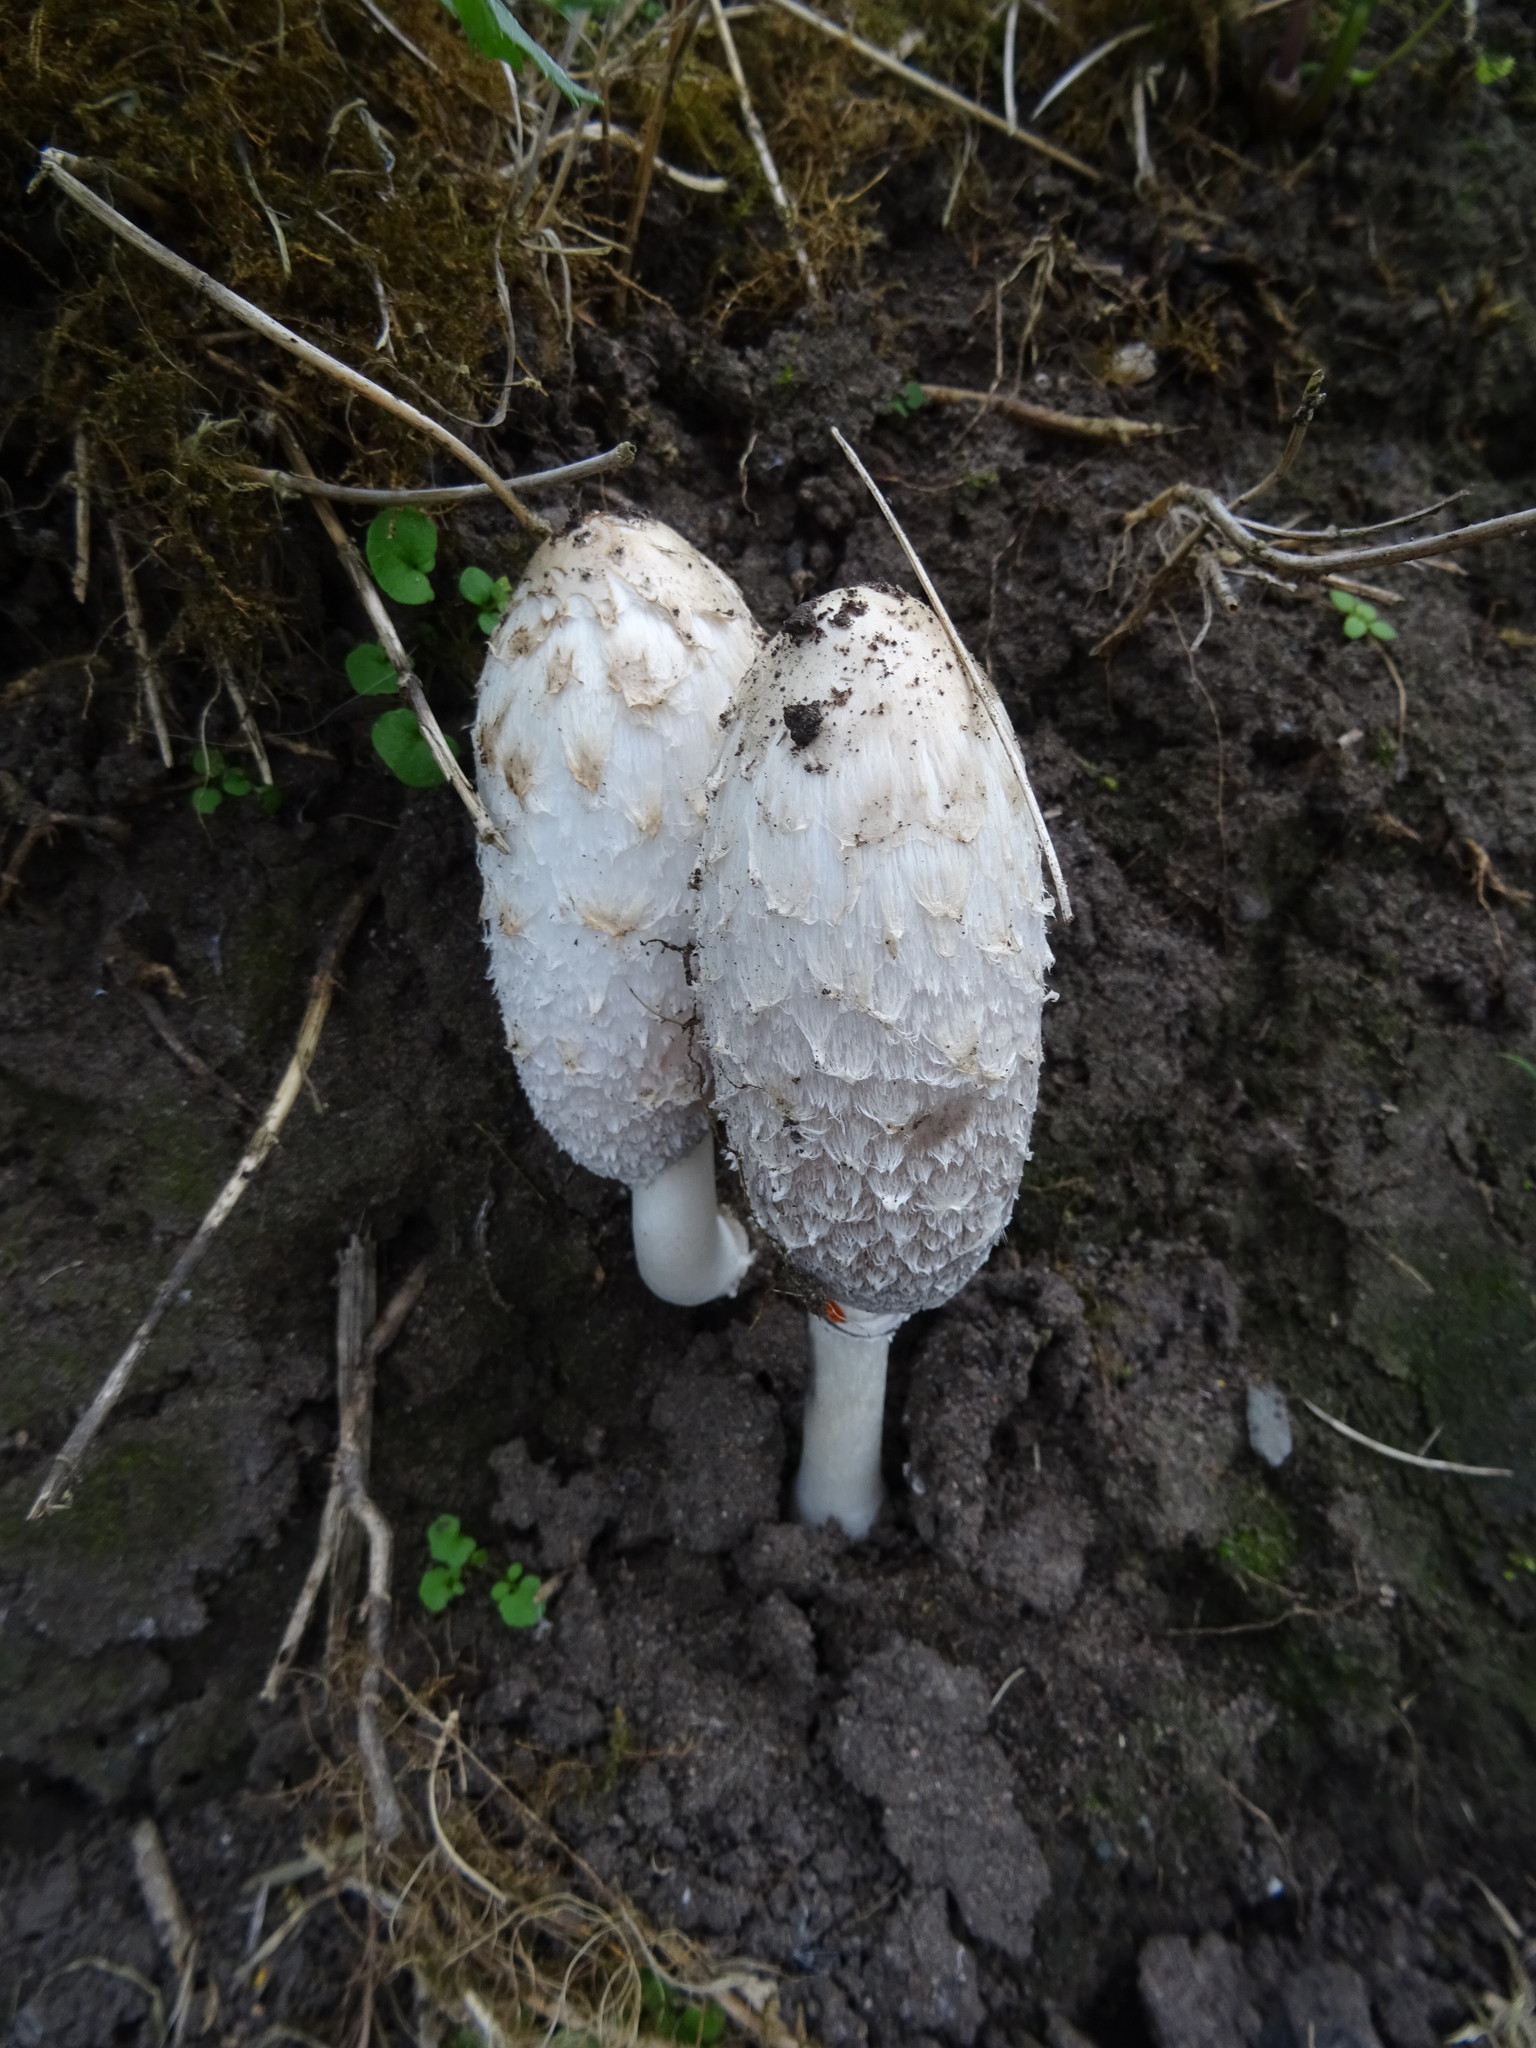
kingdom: Fungi
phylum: Basidiomycota
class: Agaricomycetes
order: Agaricales
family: Agaricaceae
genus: Coprinus
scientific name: Coprinus comatus
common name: Lawyer's wig
